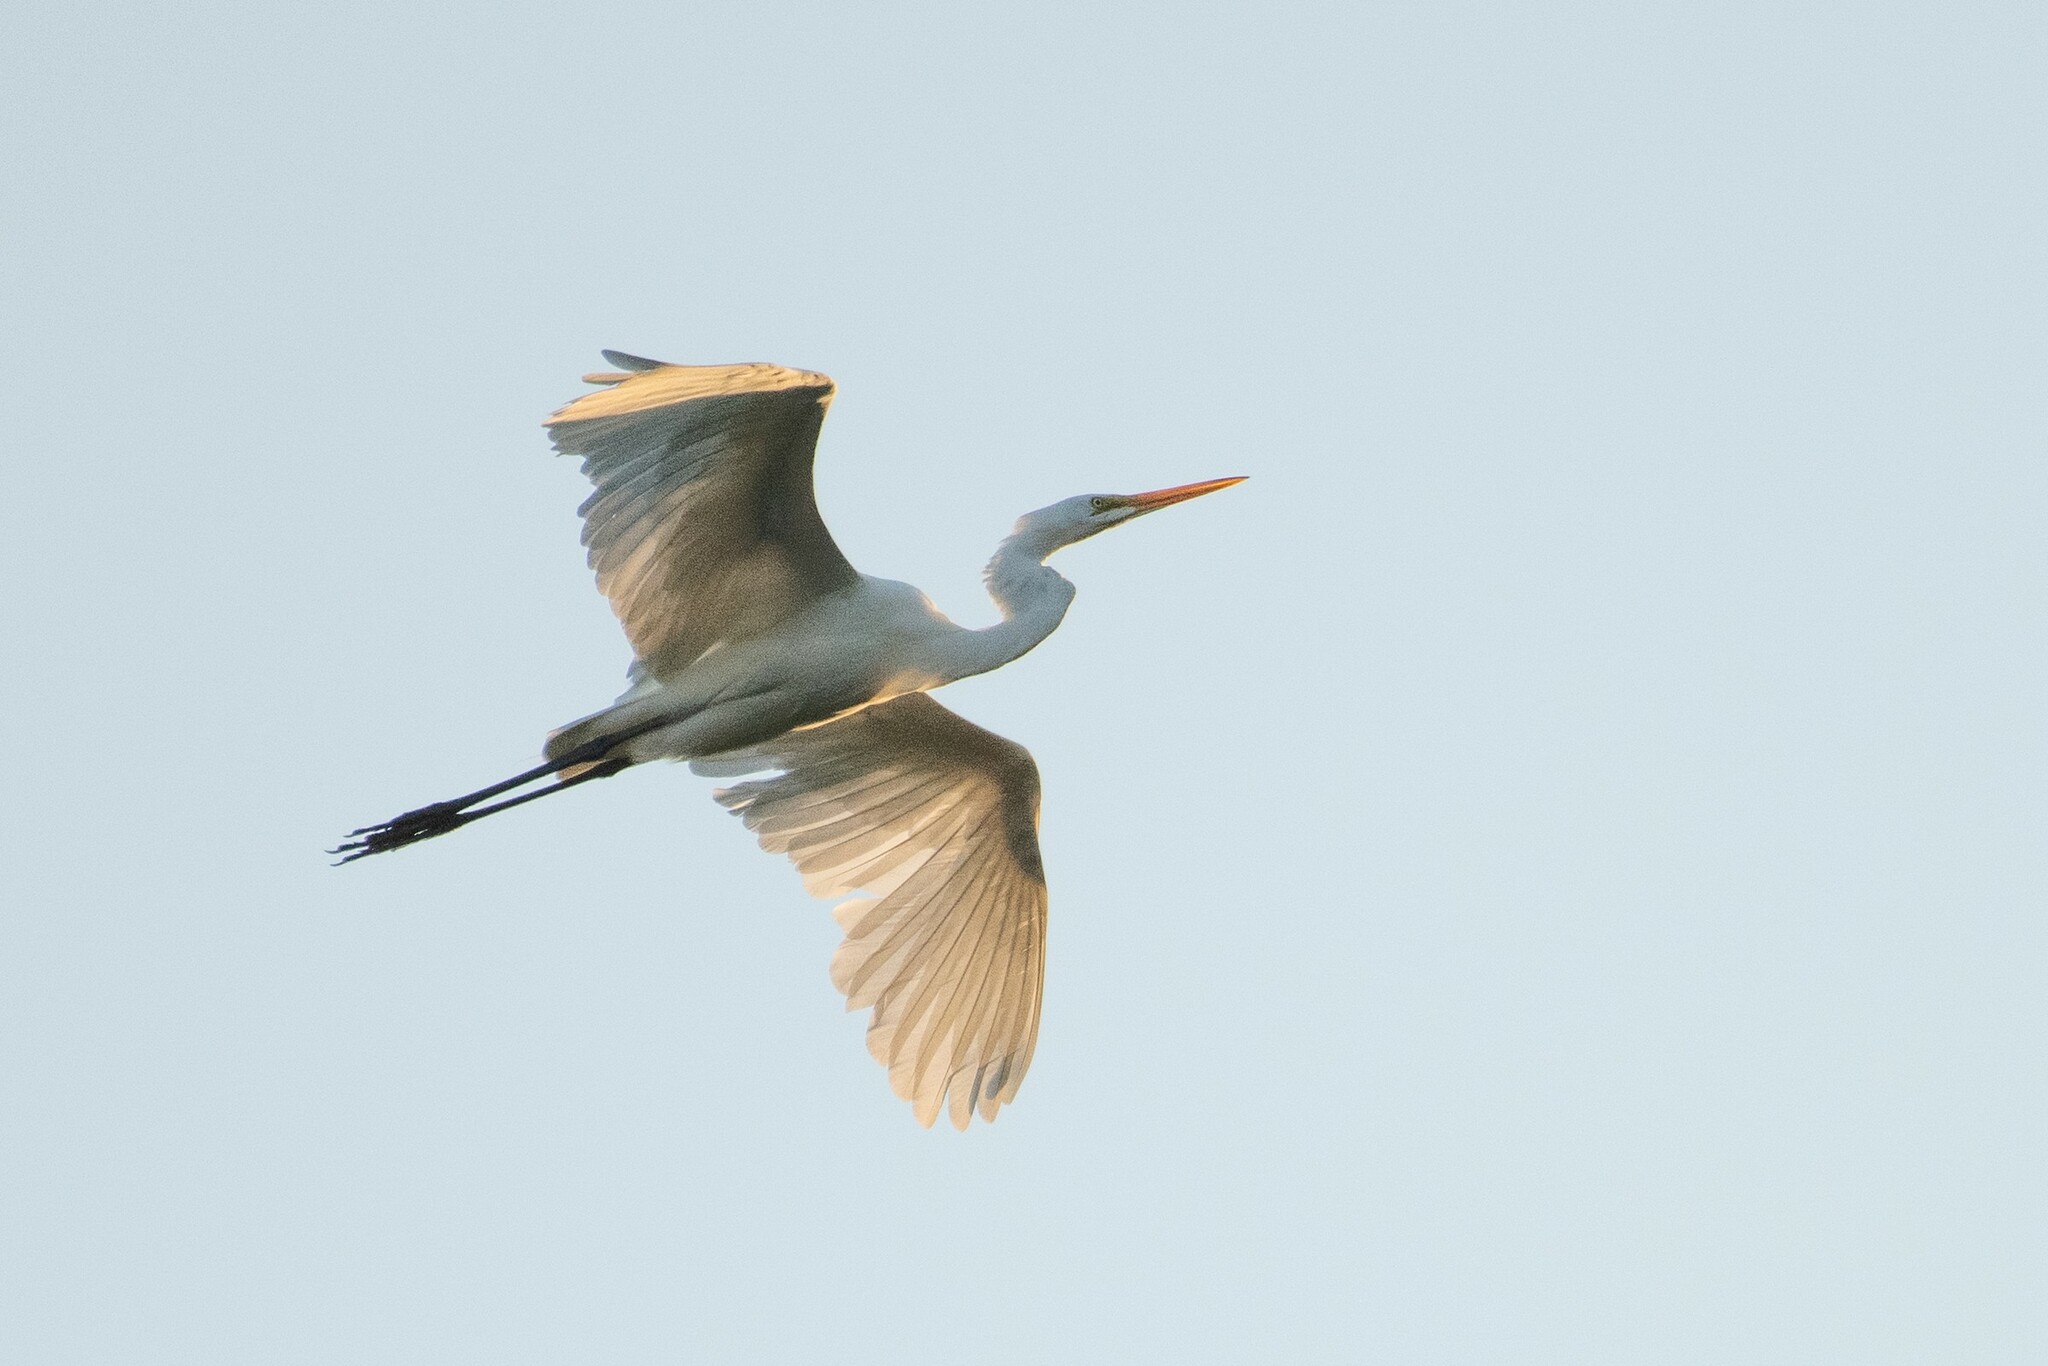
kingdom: Animalia
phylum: Chordata
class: Aves
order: Pelecaniformes
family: Ardeidae
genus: Ardea
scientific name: Ardea alba
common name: Great egret
